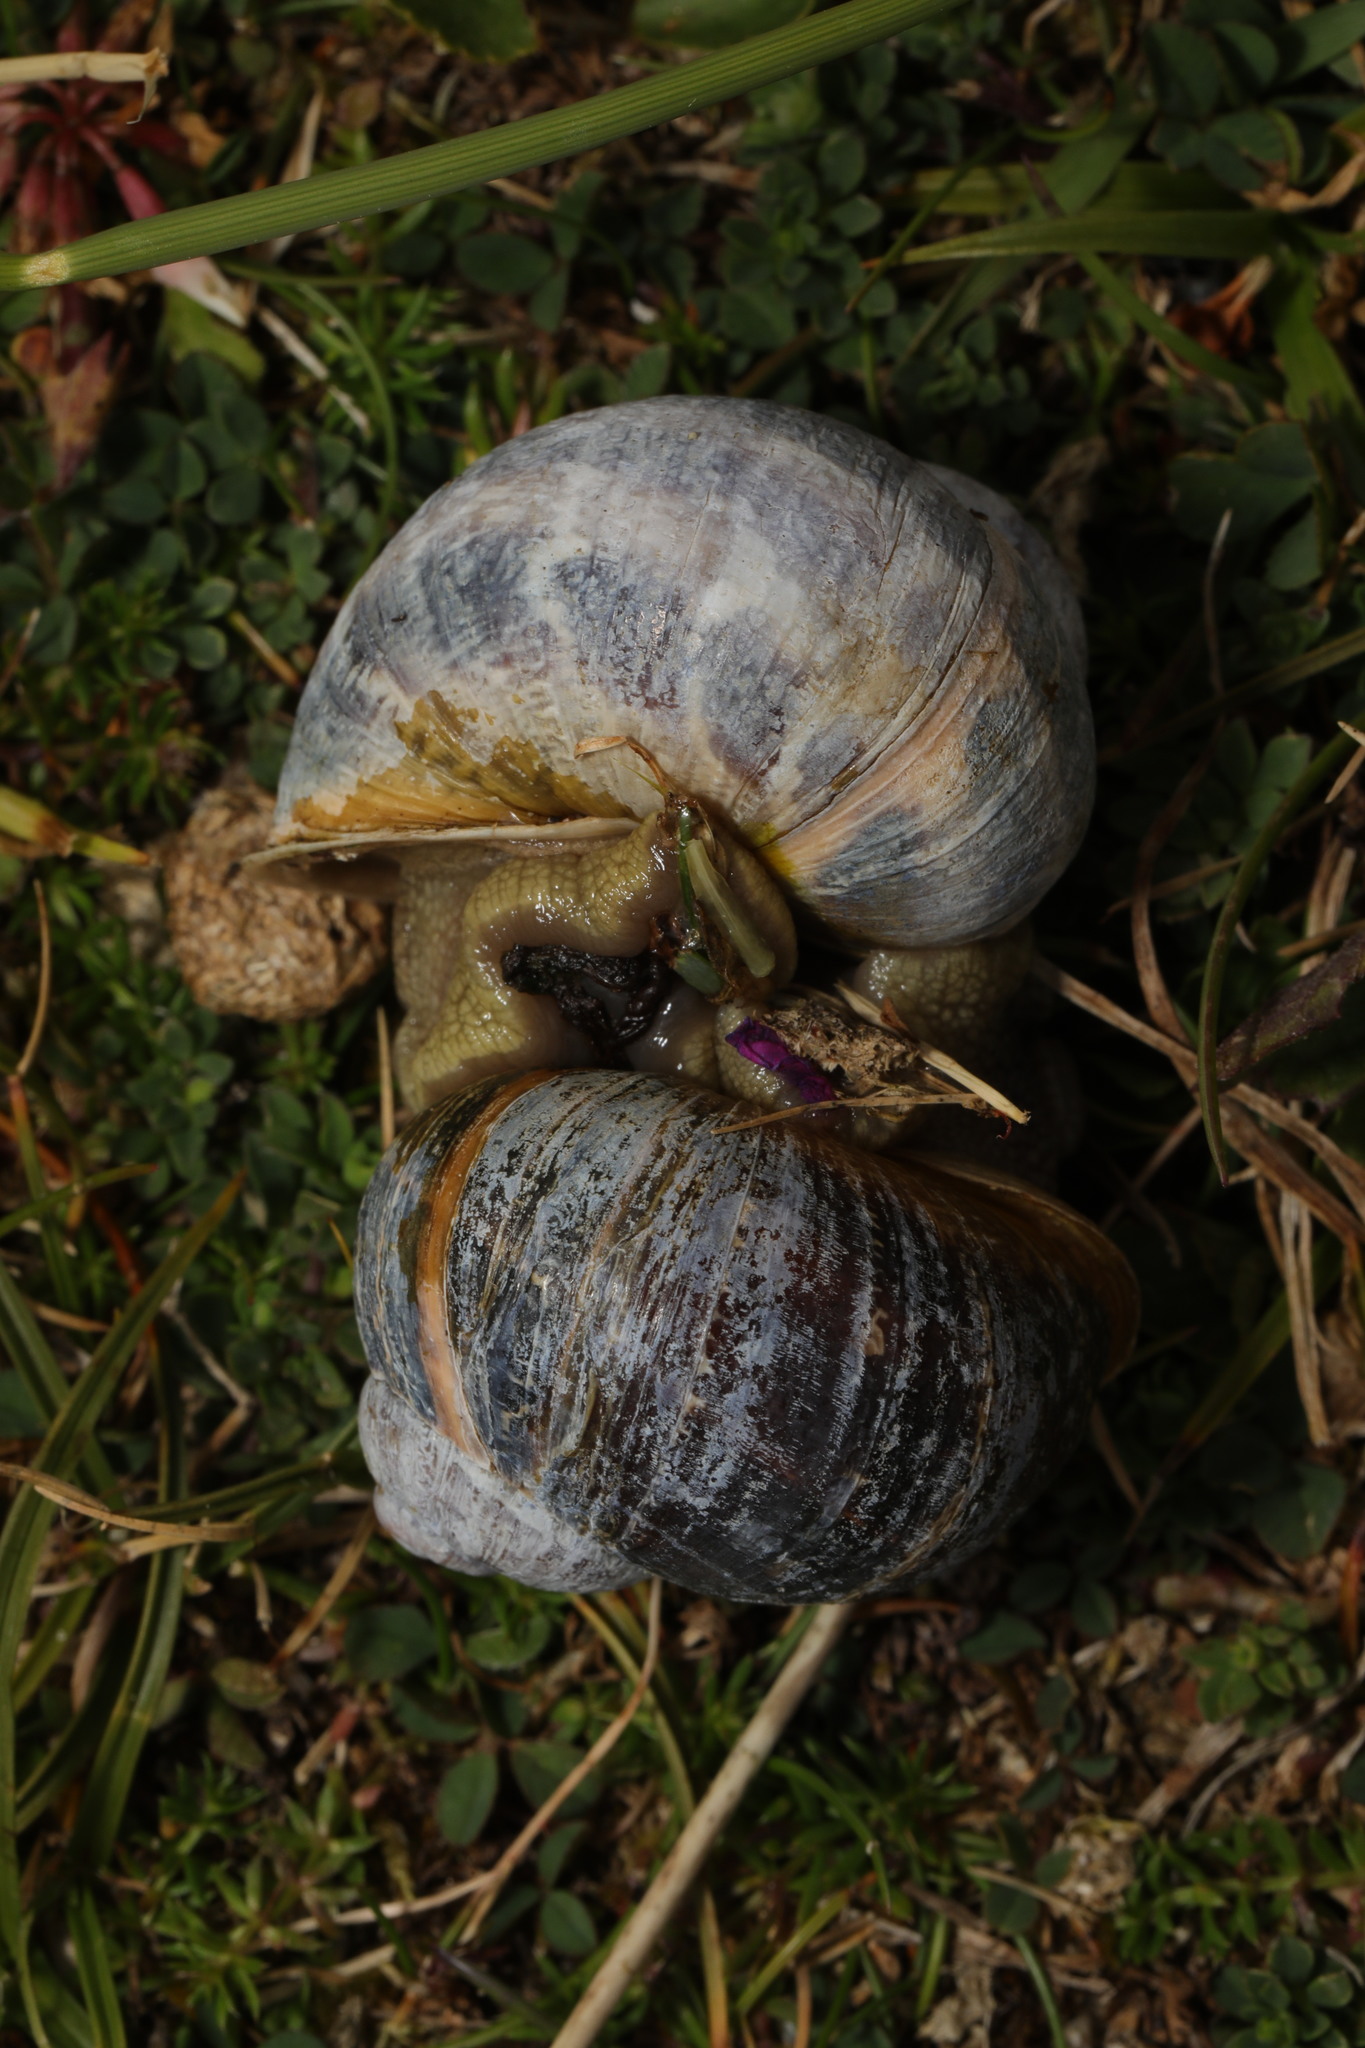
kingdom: Animalia
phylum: Mollusca
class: Gastropoda
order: Stylommatophora
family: Helicidae
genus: Cornu
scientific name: Cornu aspersum
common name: Brown garden snail
